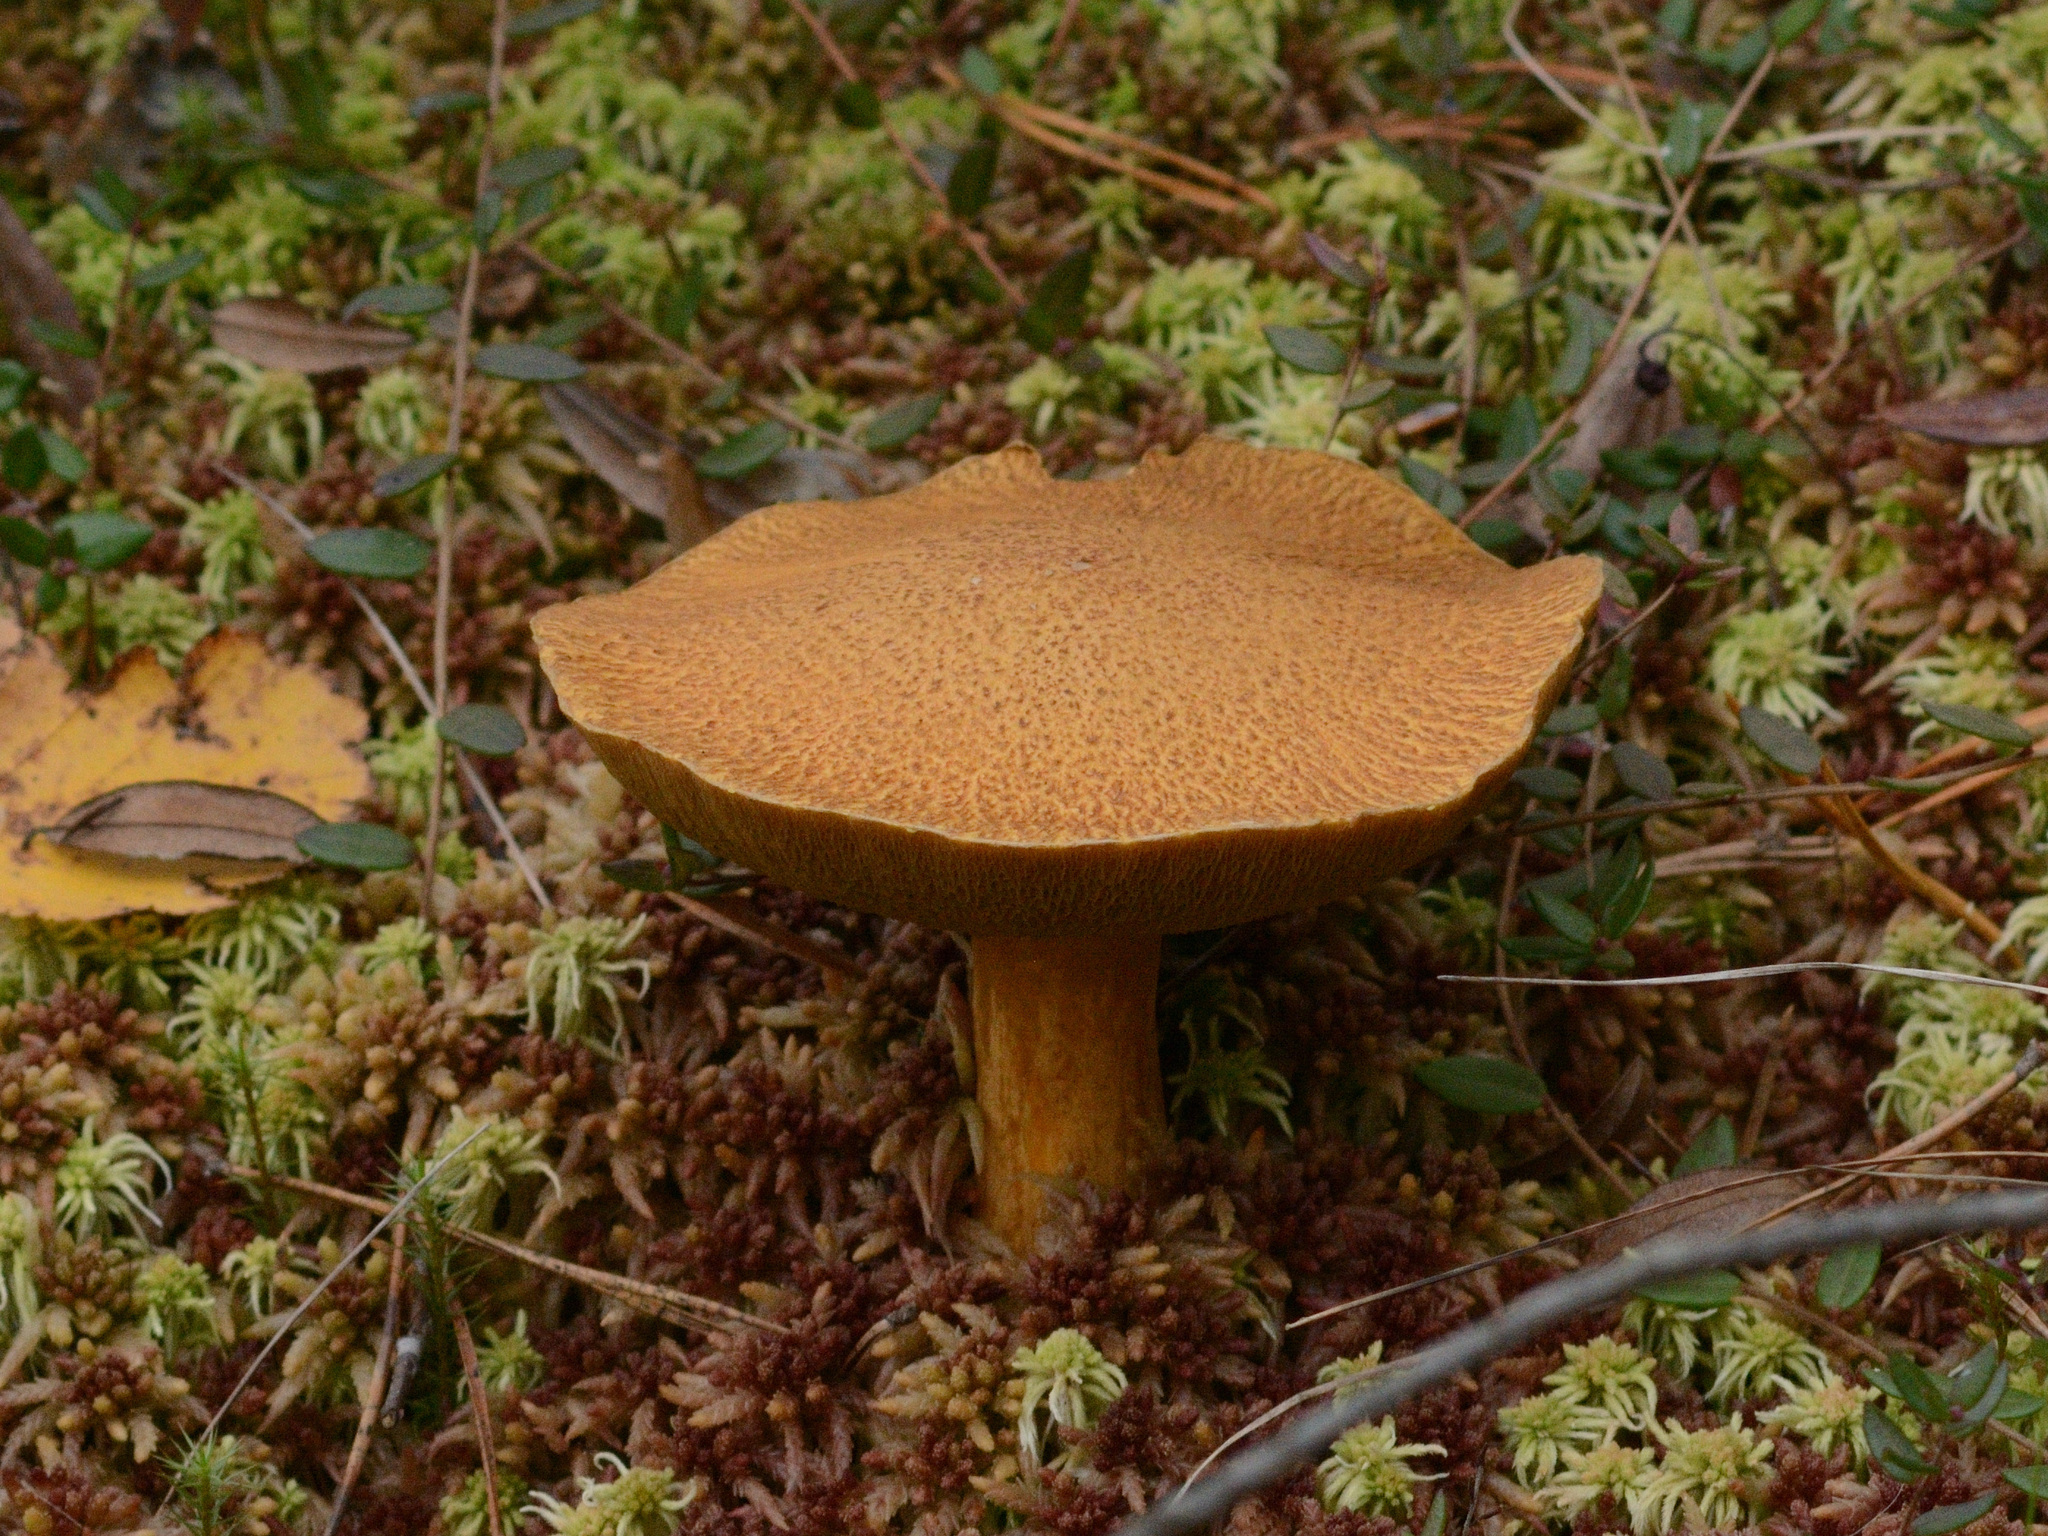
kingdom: Fungi
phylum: Basidiomycota
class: Agaricomycetes
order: Boletales
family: Suillaceae
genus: Suillus
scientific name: Suillus variegatus
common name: Velvet bolete
